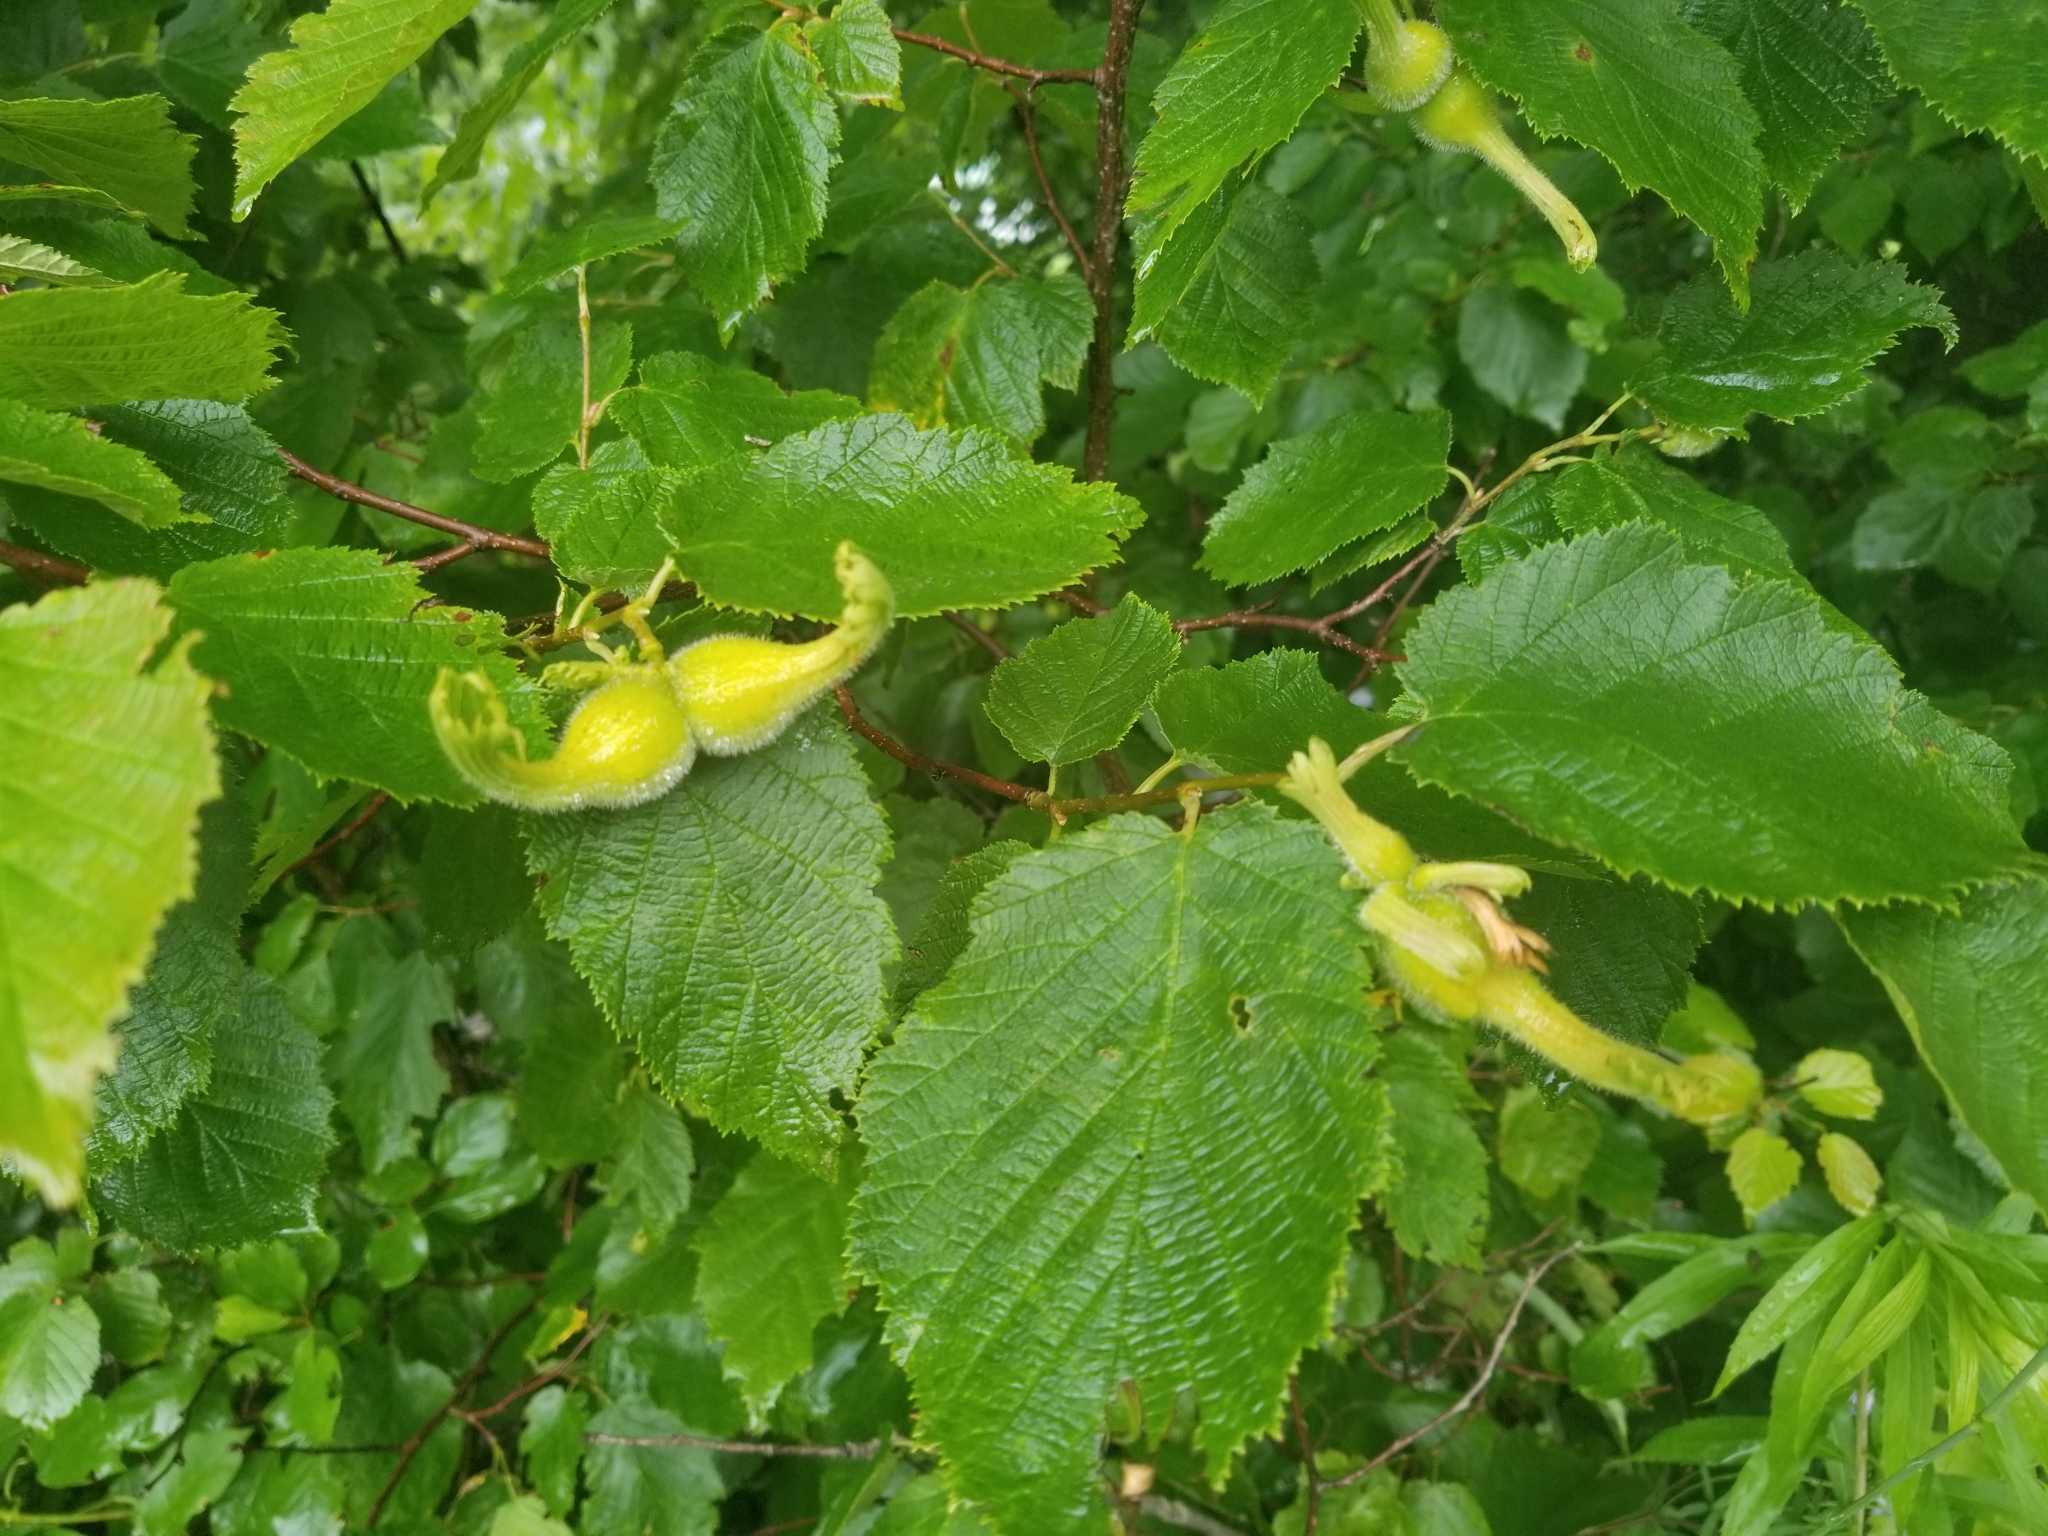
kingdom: Plantae
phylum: Tracheophyta
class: Magnoliopsida
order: Fagales
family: Betulaceae
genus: Corylus
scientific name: Corylus cornuta
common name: Beaked hazel
